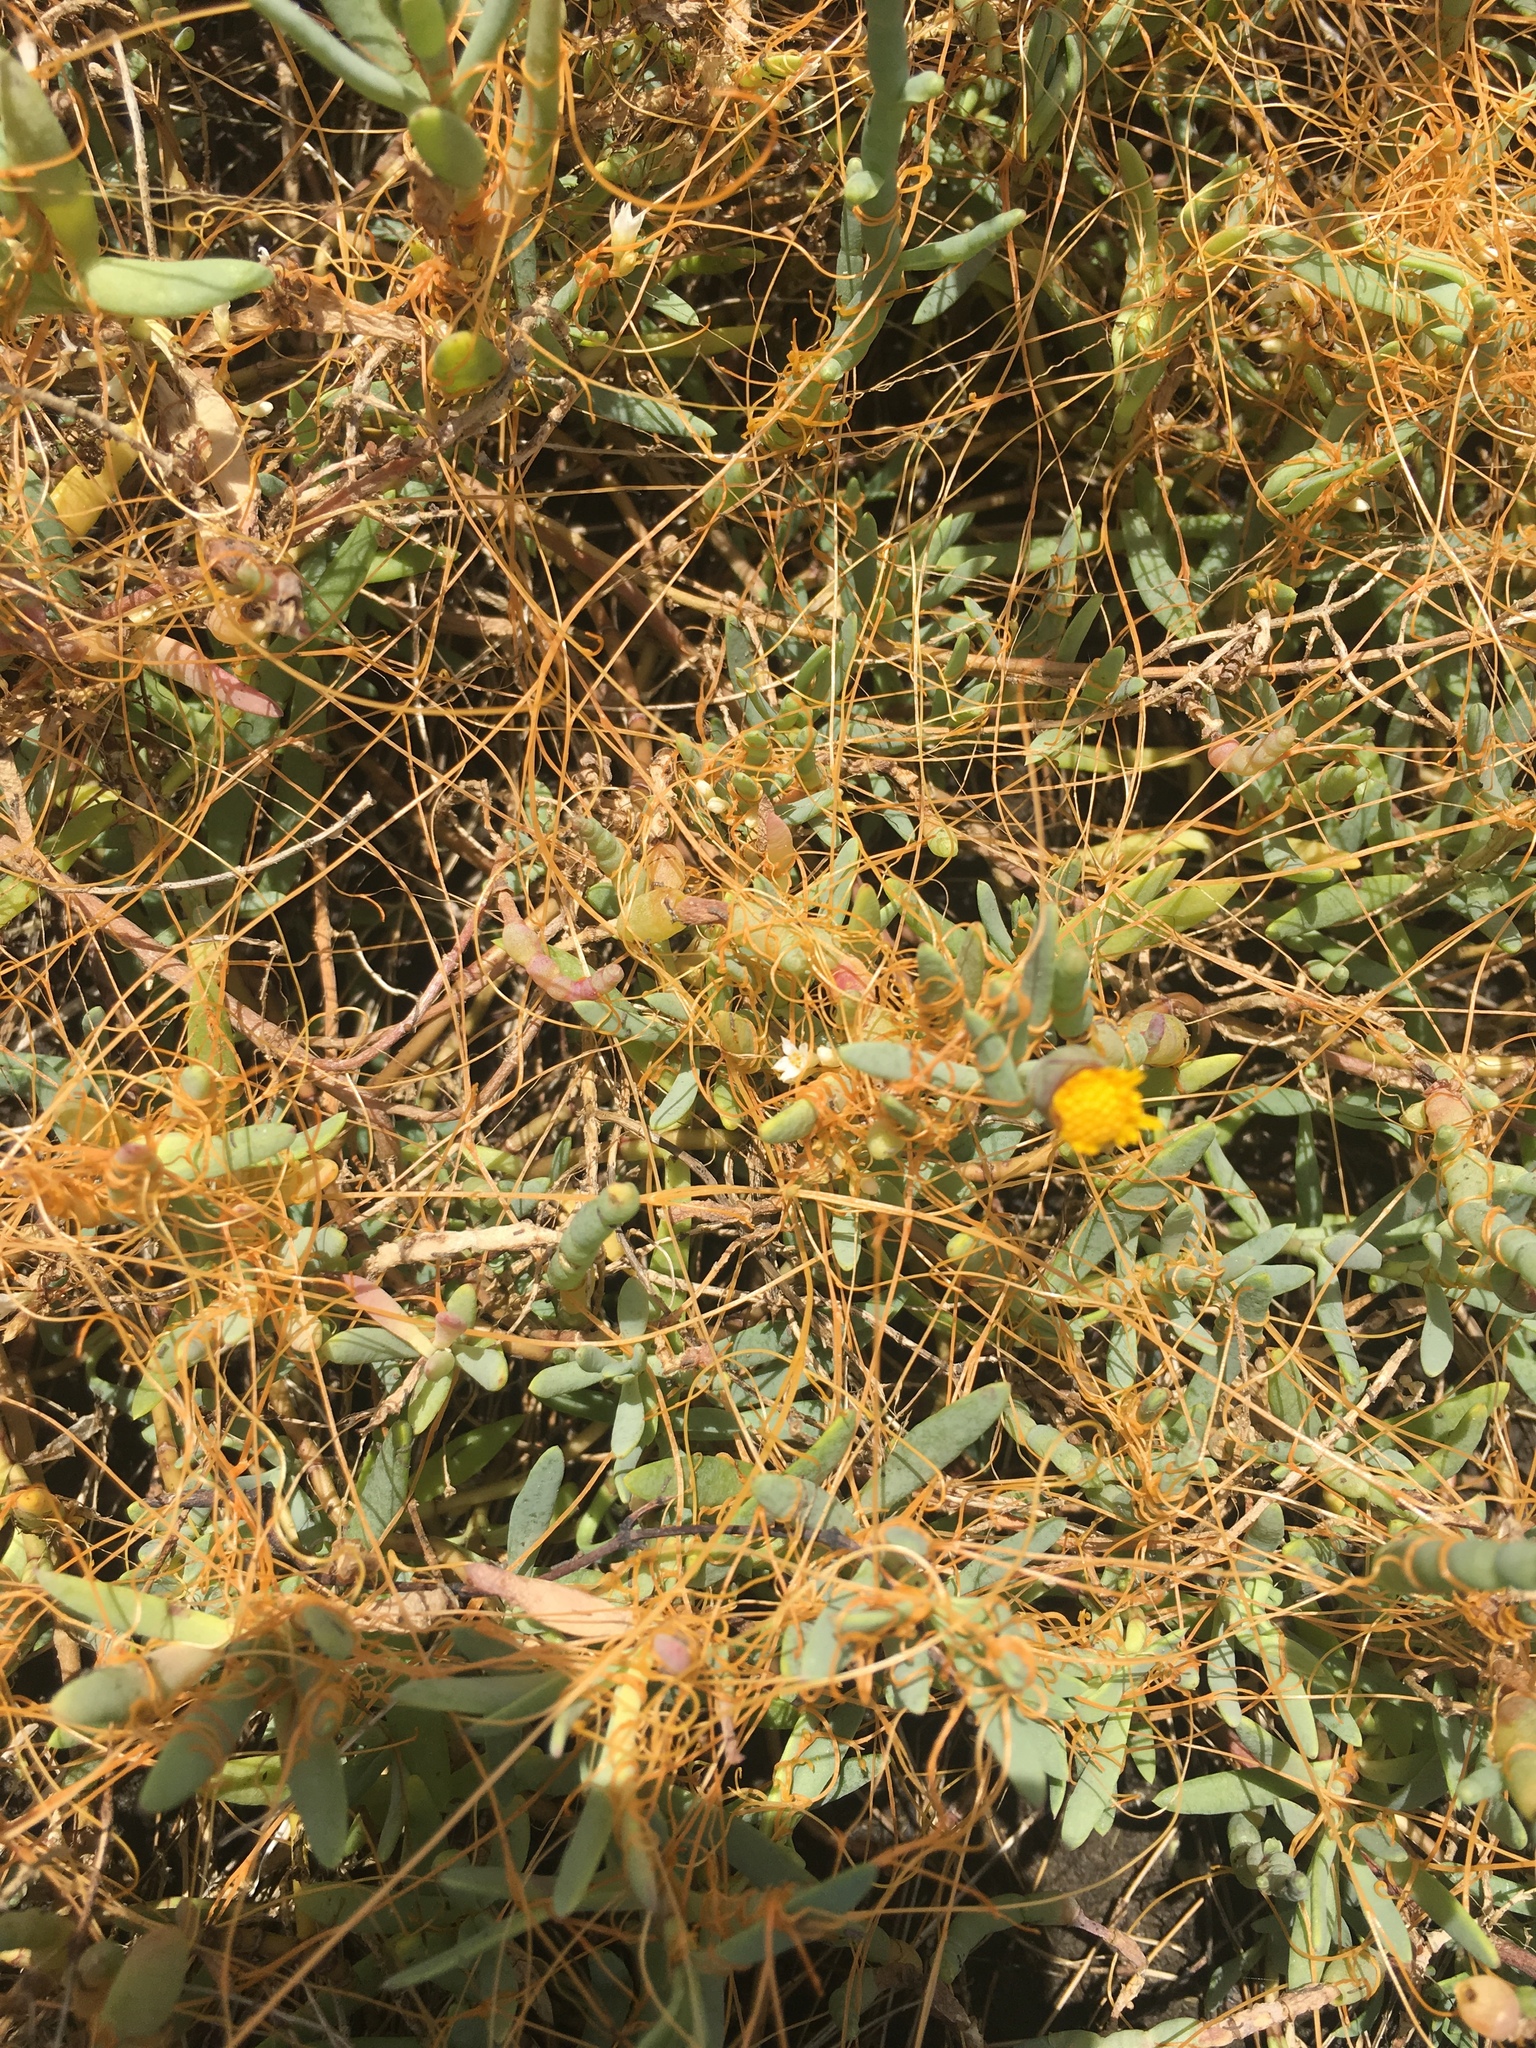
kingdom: Plantae
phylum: Tracheophyta
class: Magnoliopsida
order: Solanales
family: Convolvulaceae
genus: Cuscuta
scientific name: Cuscuta pacifica
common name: Large saltmarsh dodder
